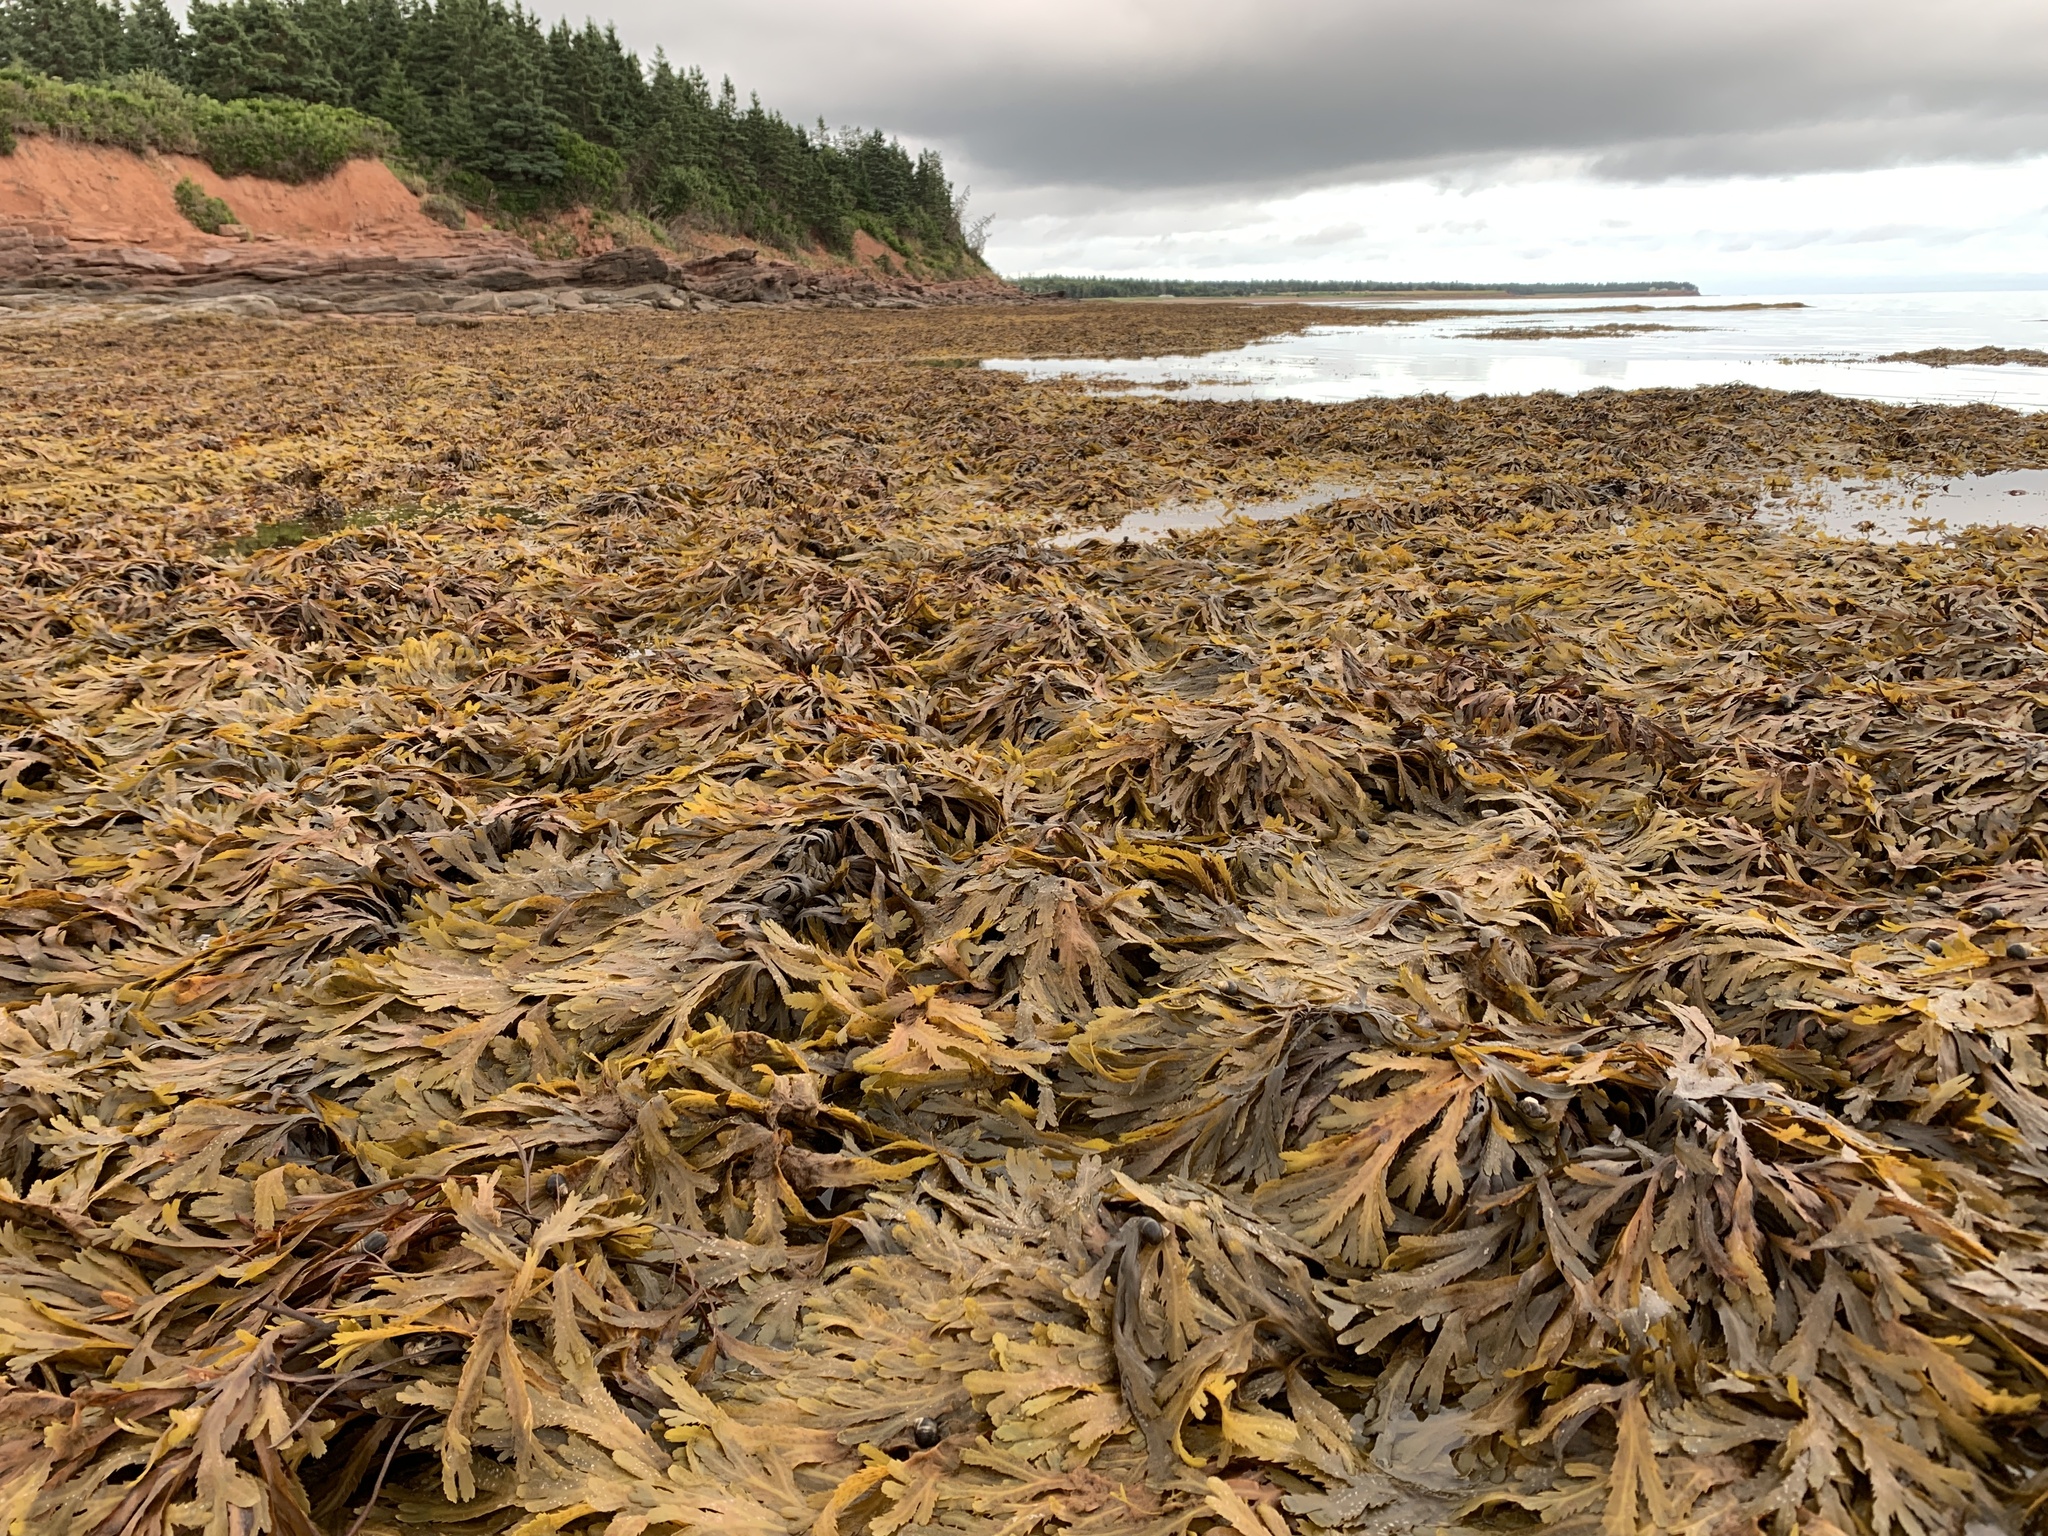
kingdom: Chromista
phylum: Ochrophyta
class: Phaeophyceae
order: Fucales
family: Fucaceae
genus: Fucus
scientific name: Fucus serratus
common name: Toothed wrack
